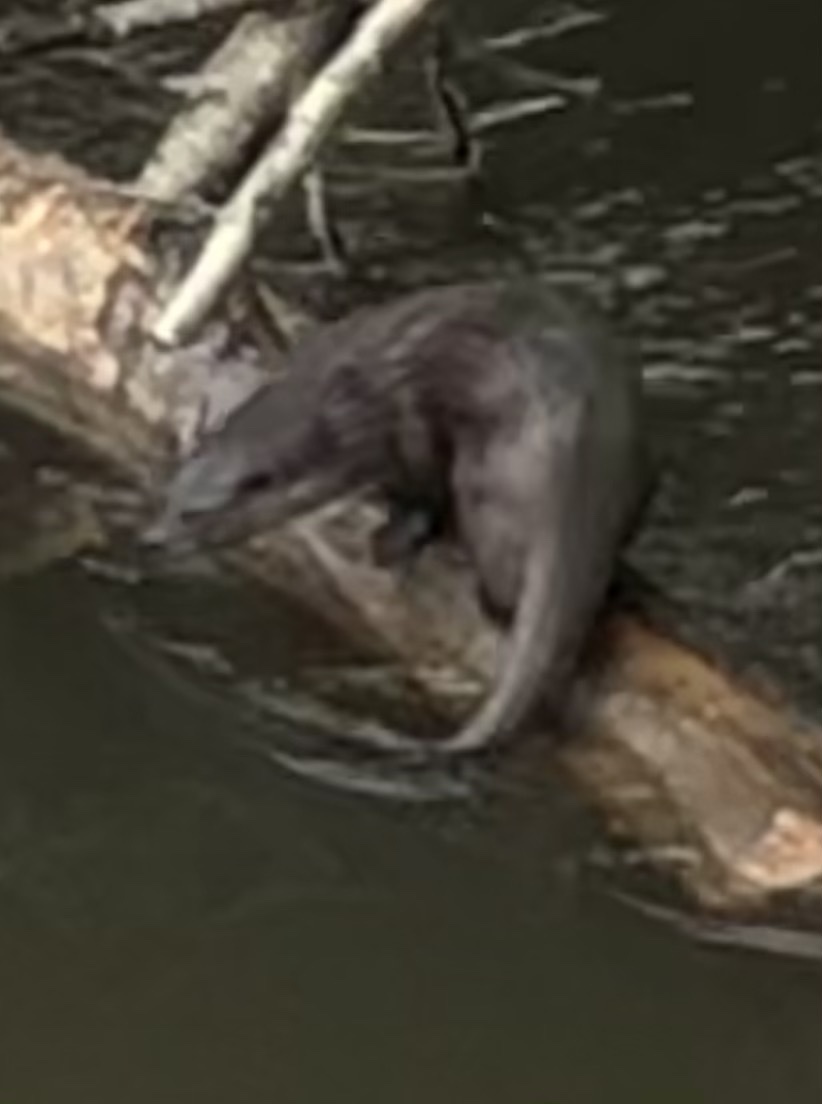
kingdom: Animalia
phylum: Chordata
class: Mammalia
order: Carnivora
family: Mustelidae
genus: Lutra
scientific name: Lutra lutra
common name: European otter
